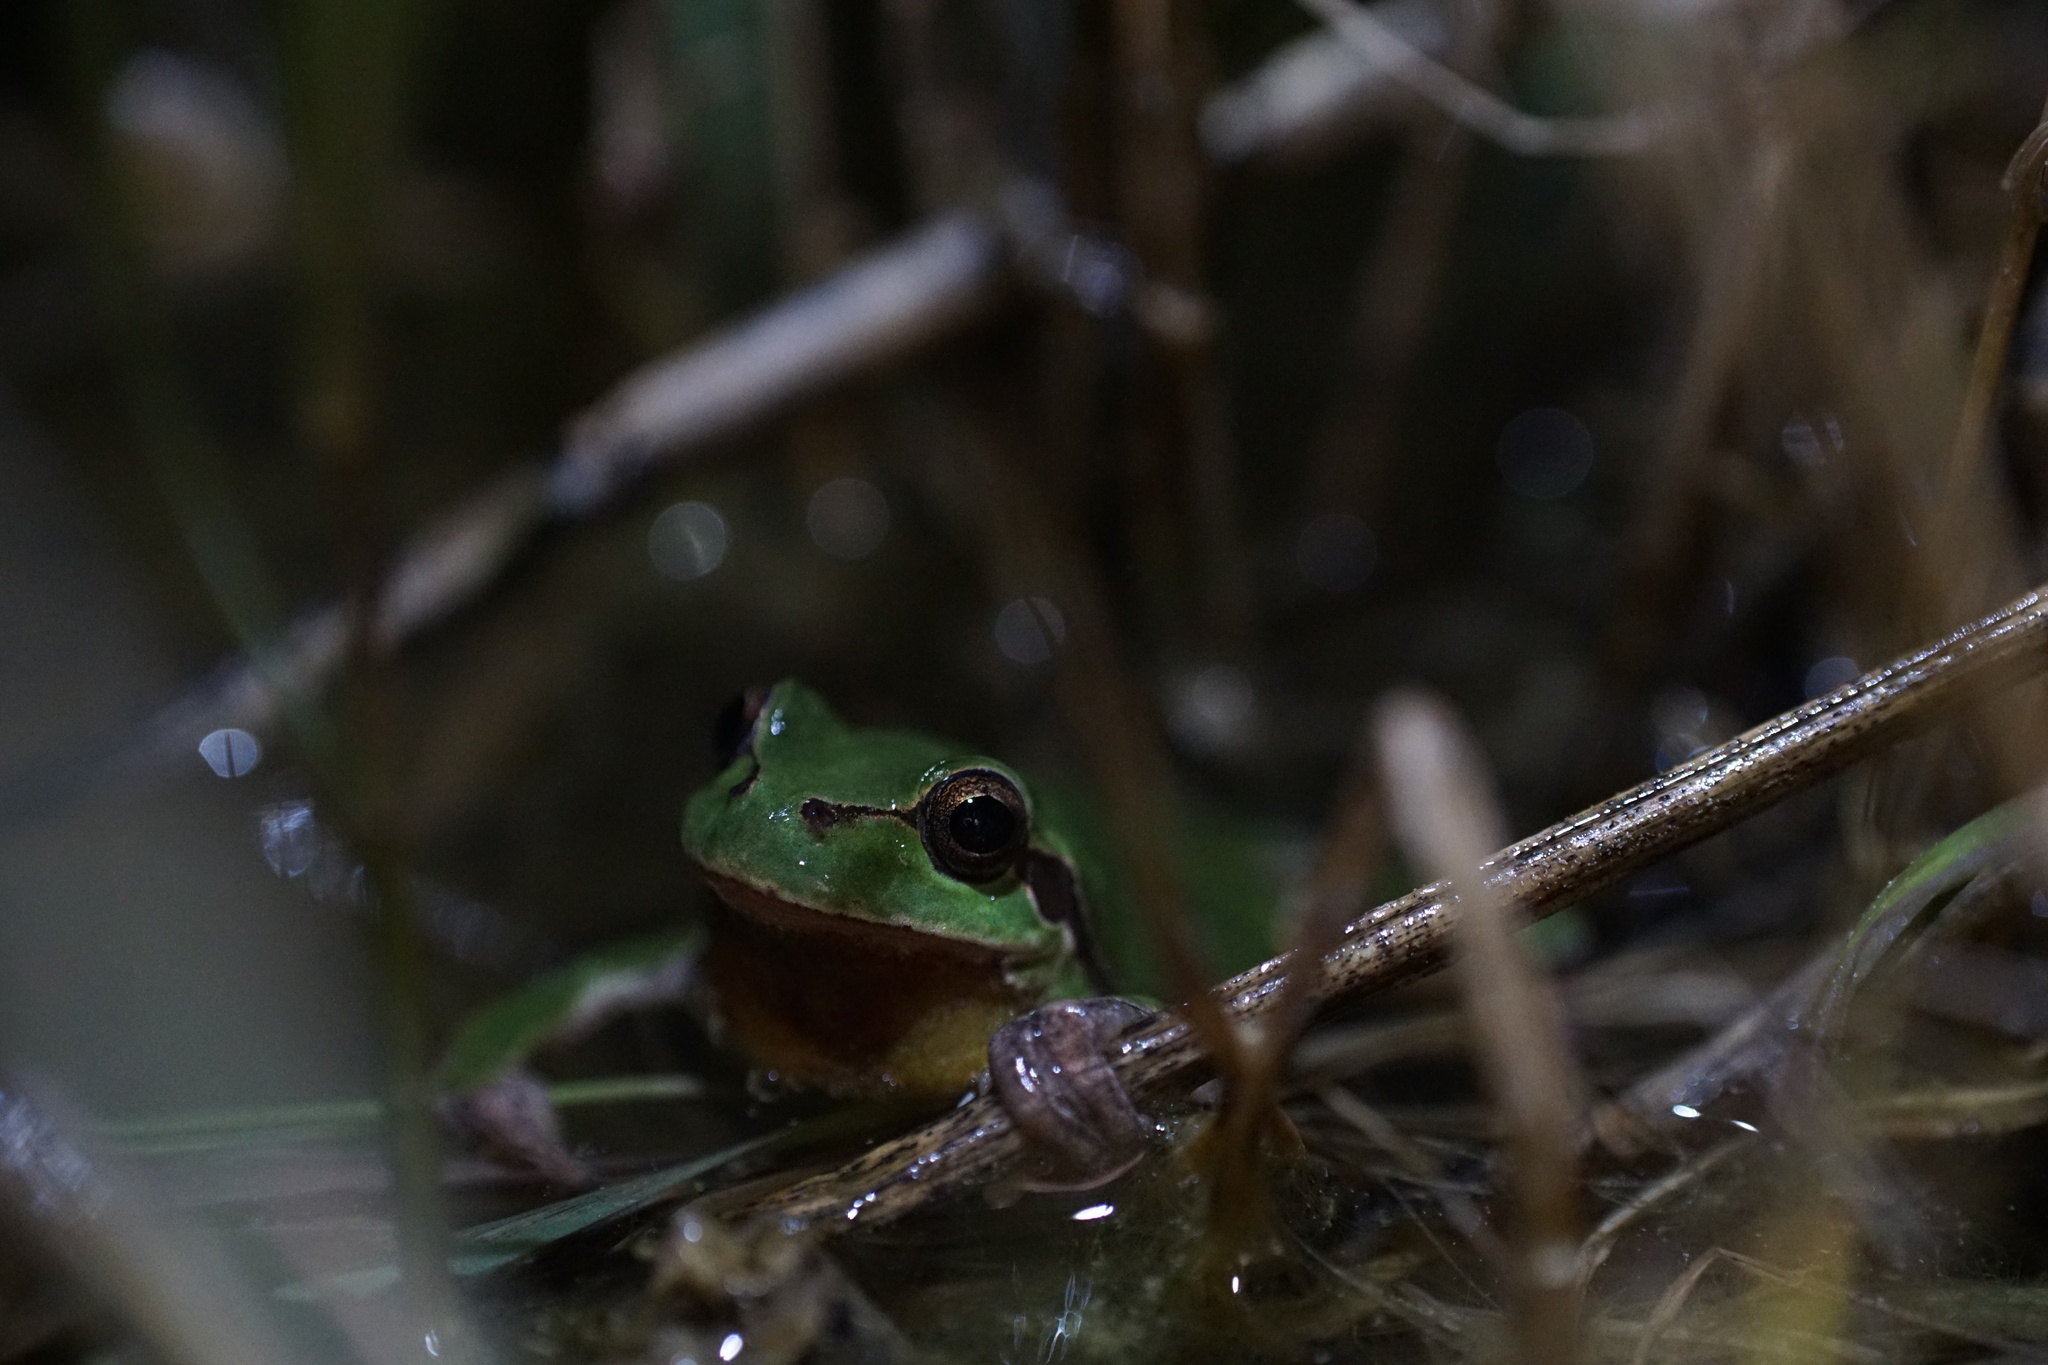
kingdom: Animalia
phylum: Chordata
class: Amphibia
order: Anura
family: Hylidae
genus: Hyla
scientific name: Hyla arborea
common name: Common tree frog
